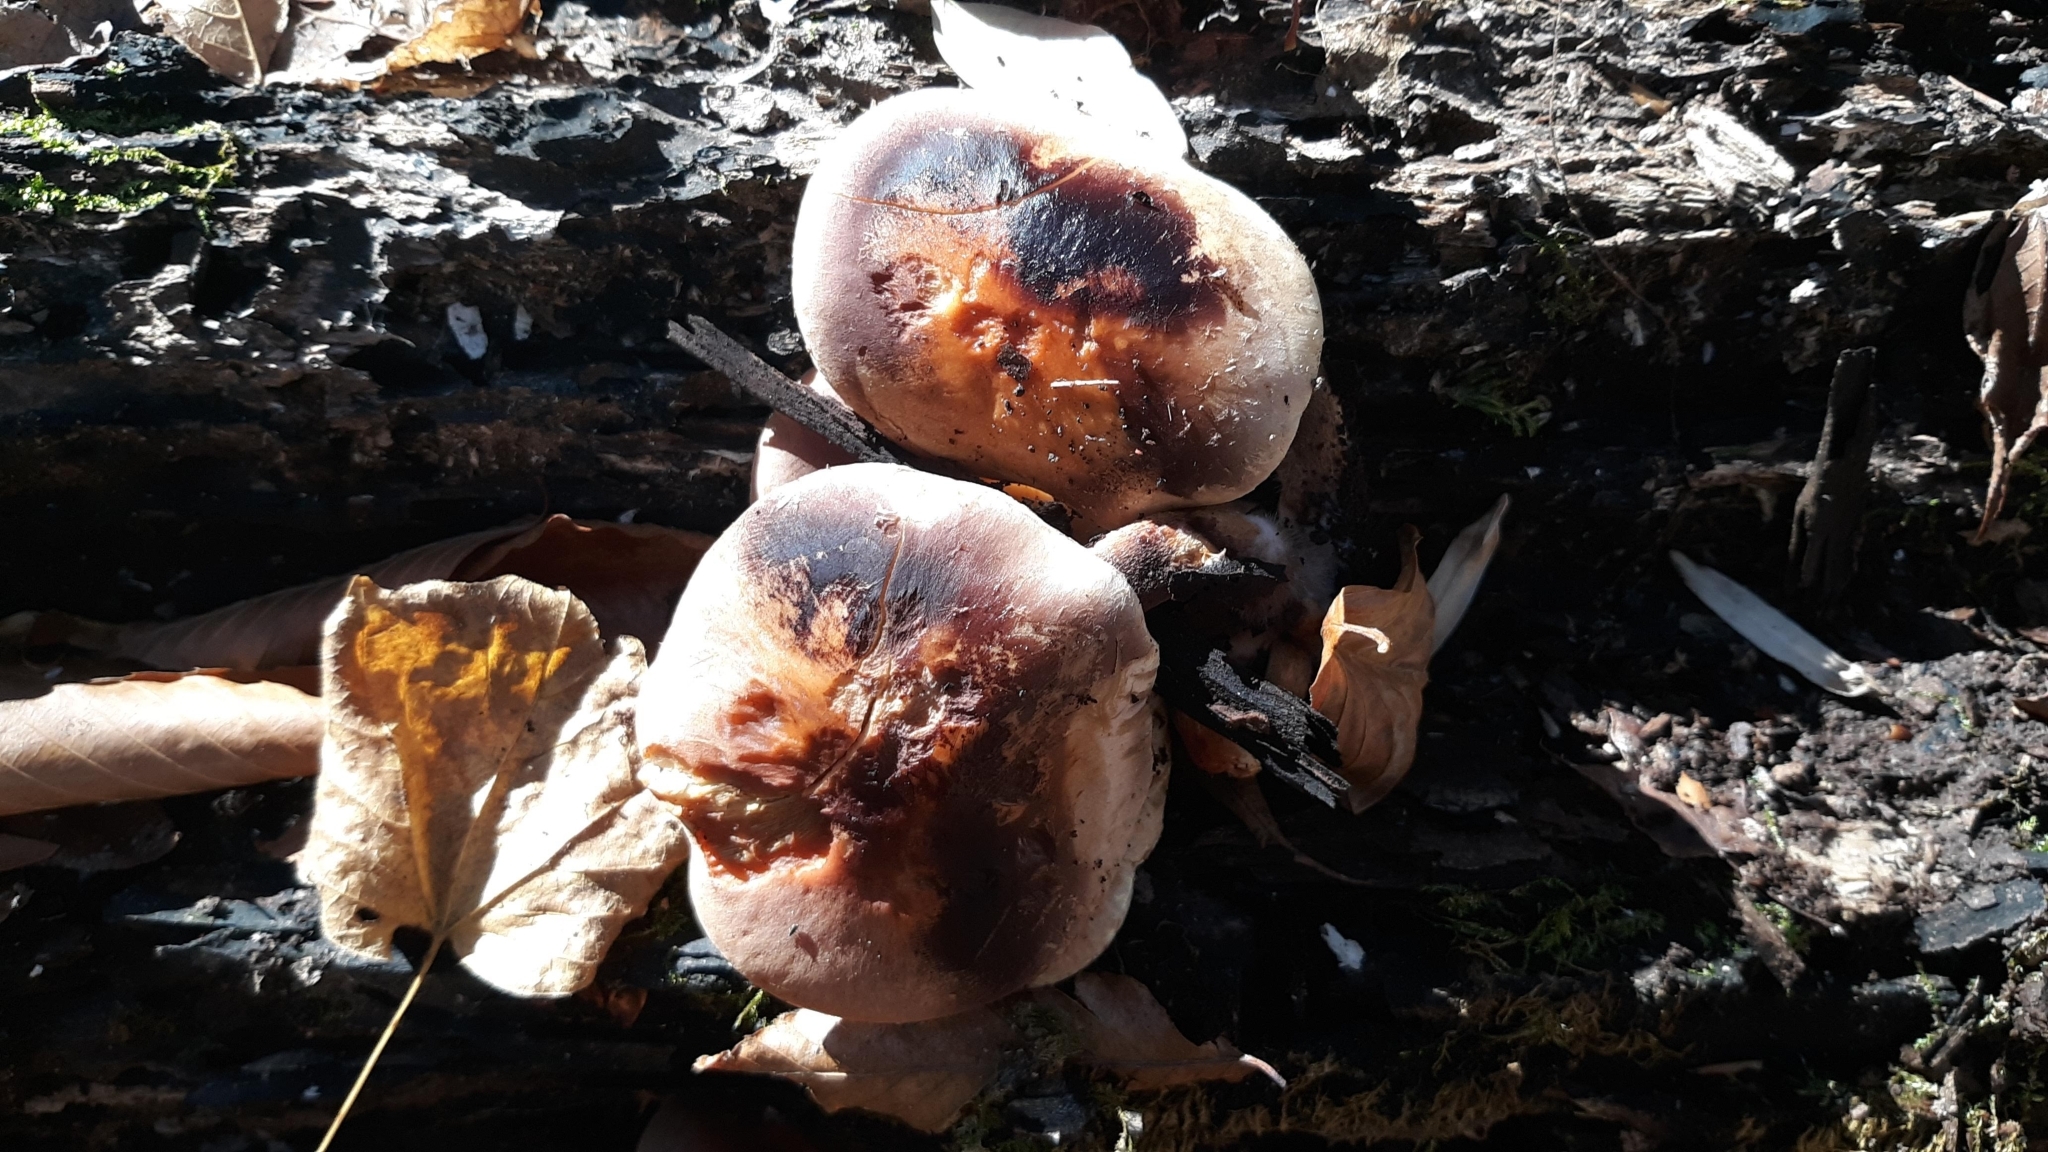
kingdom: Fungi
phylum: Basidiomycota
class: Agaricomycetes
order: Agaricales
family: Strophariaceae
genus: Hypholoma
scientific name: Hypholoma lateritium
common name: Brick caps
